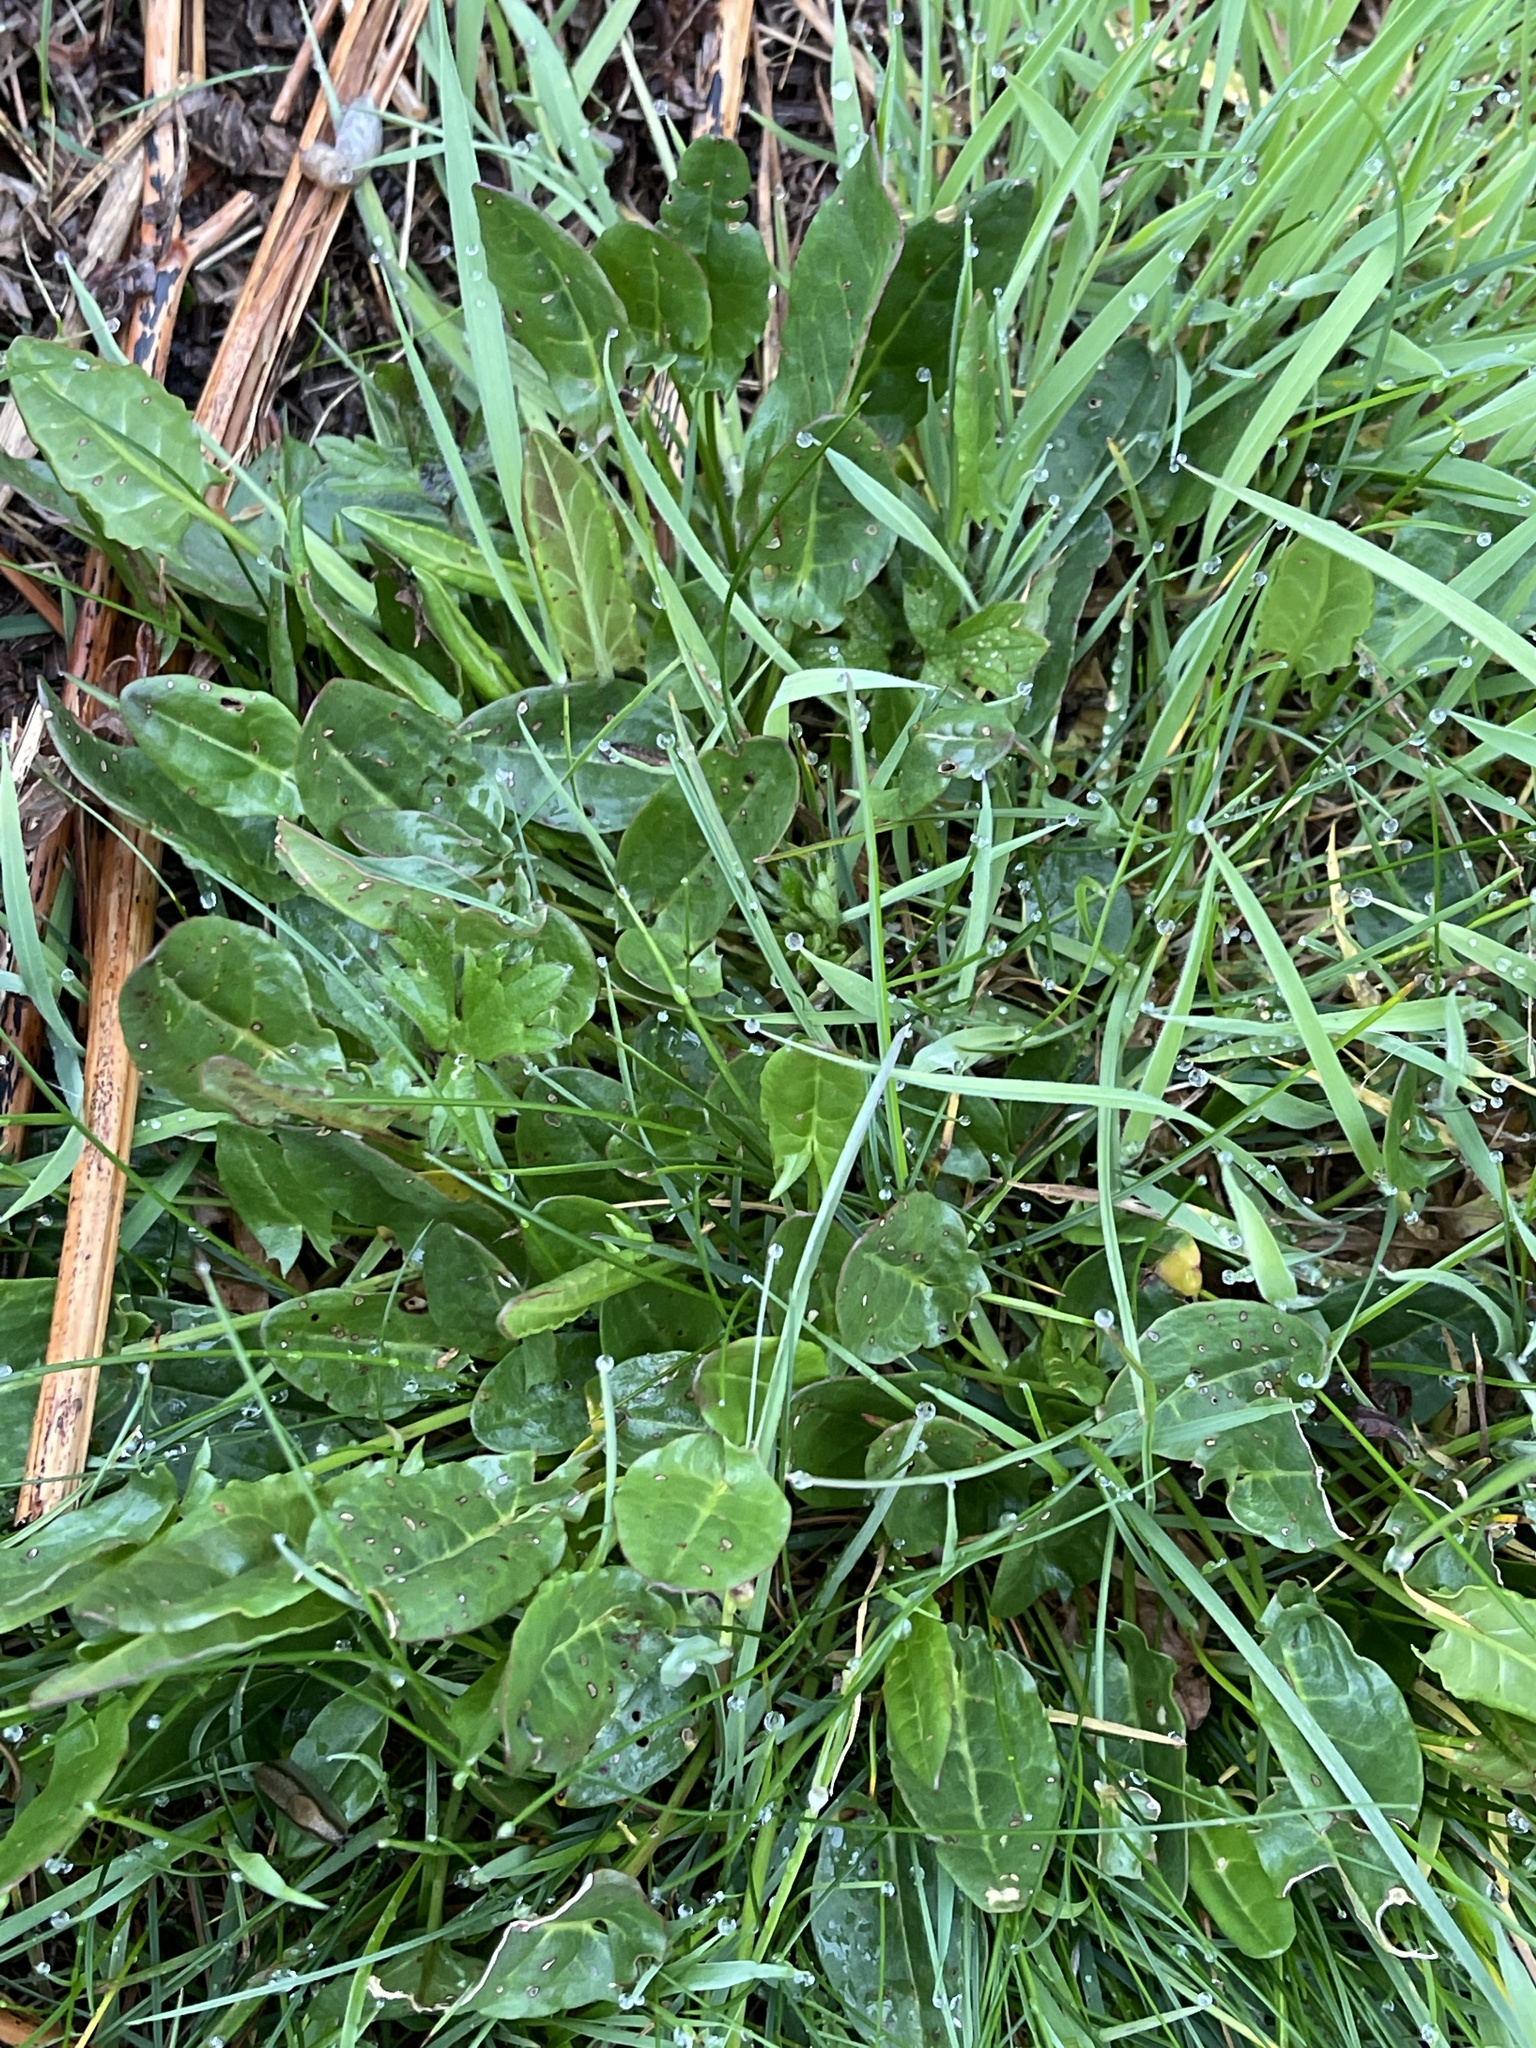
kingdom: Plantae
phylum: Tracheophyta
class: Magnoliopsida
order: Caryophyllales
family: Polygonaceae
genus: Rumex
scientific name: Rumex acetosa
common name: Garden sorrel
